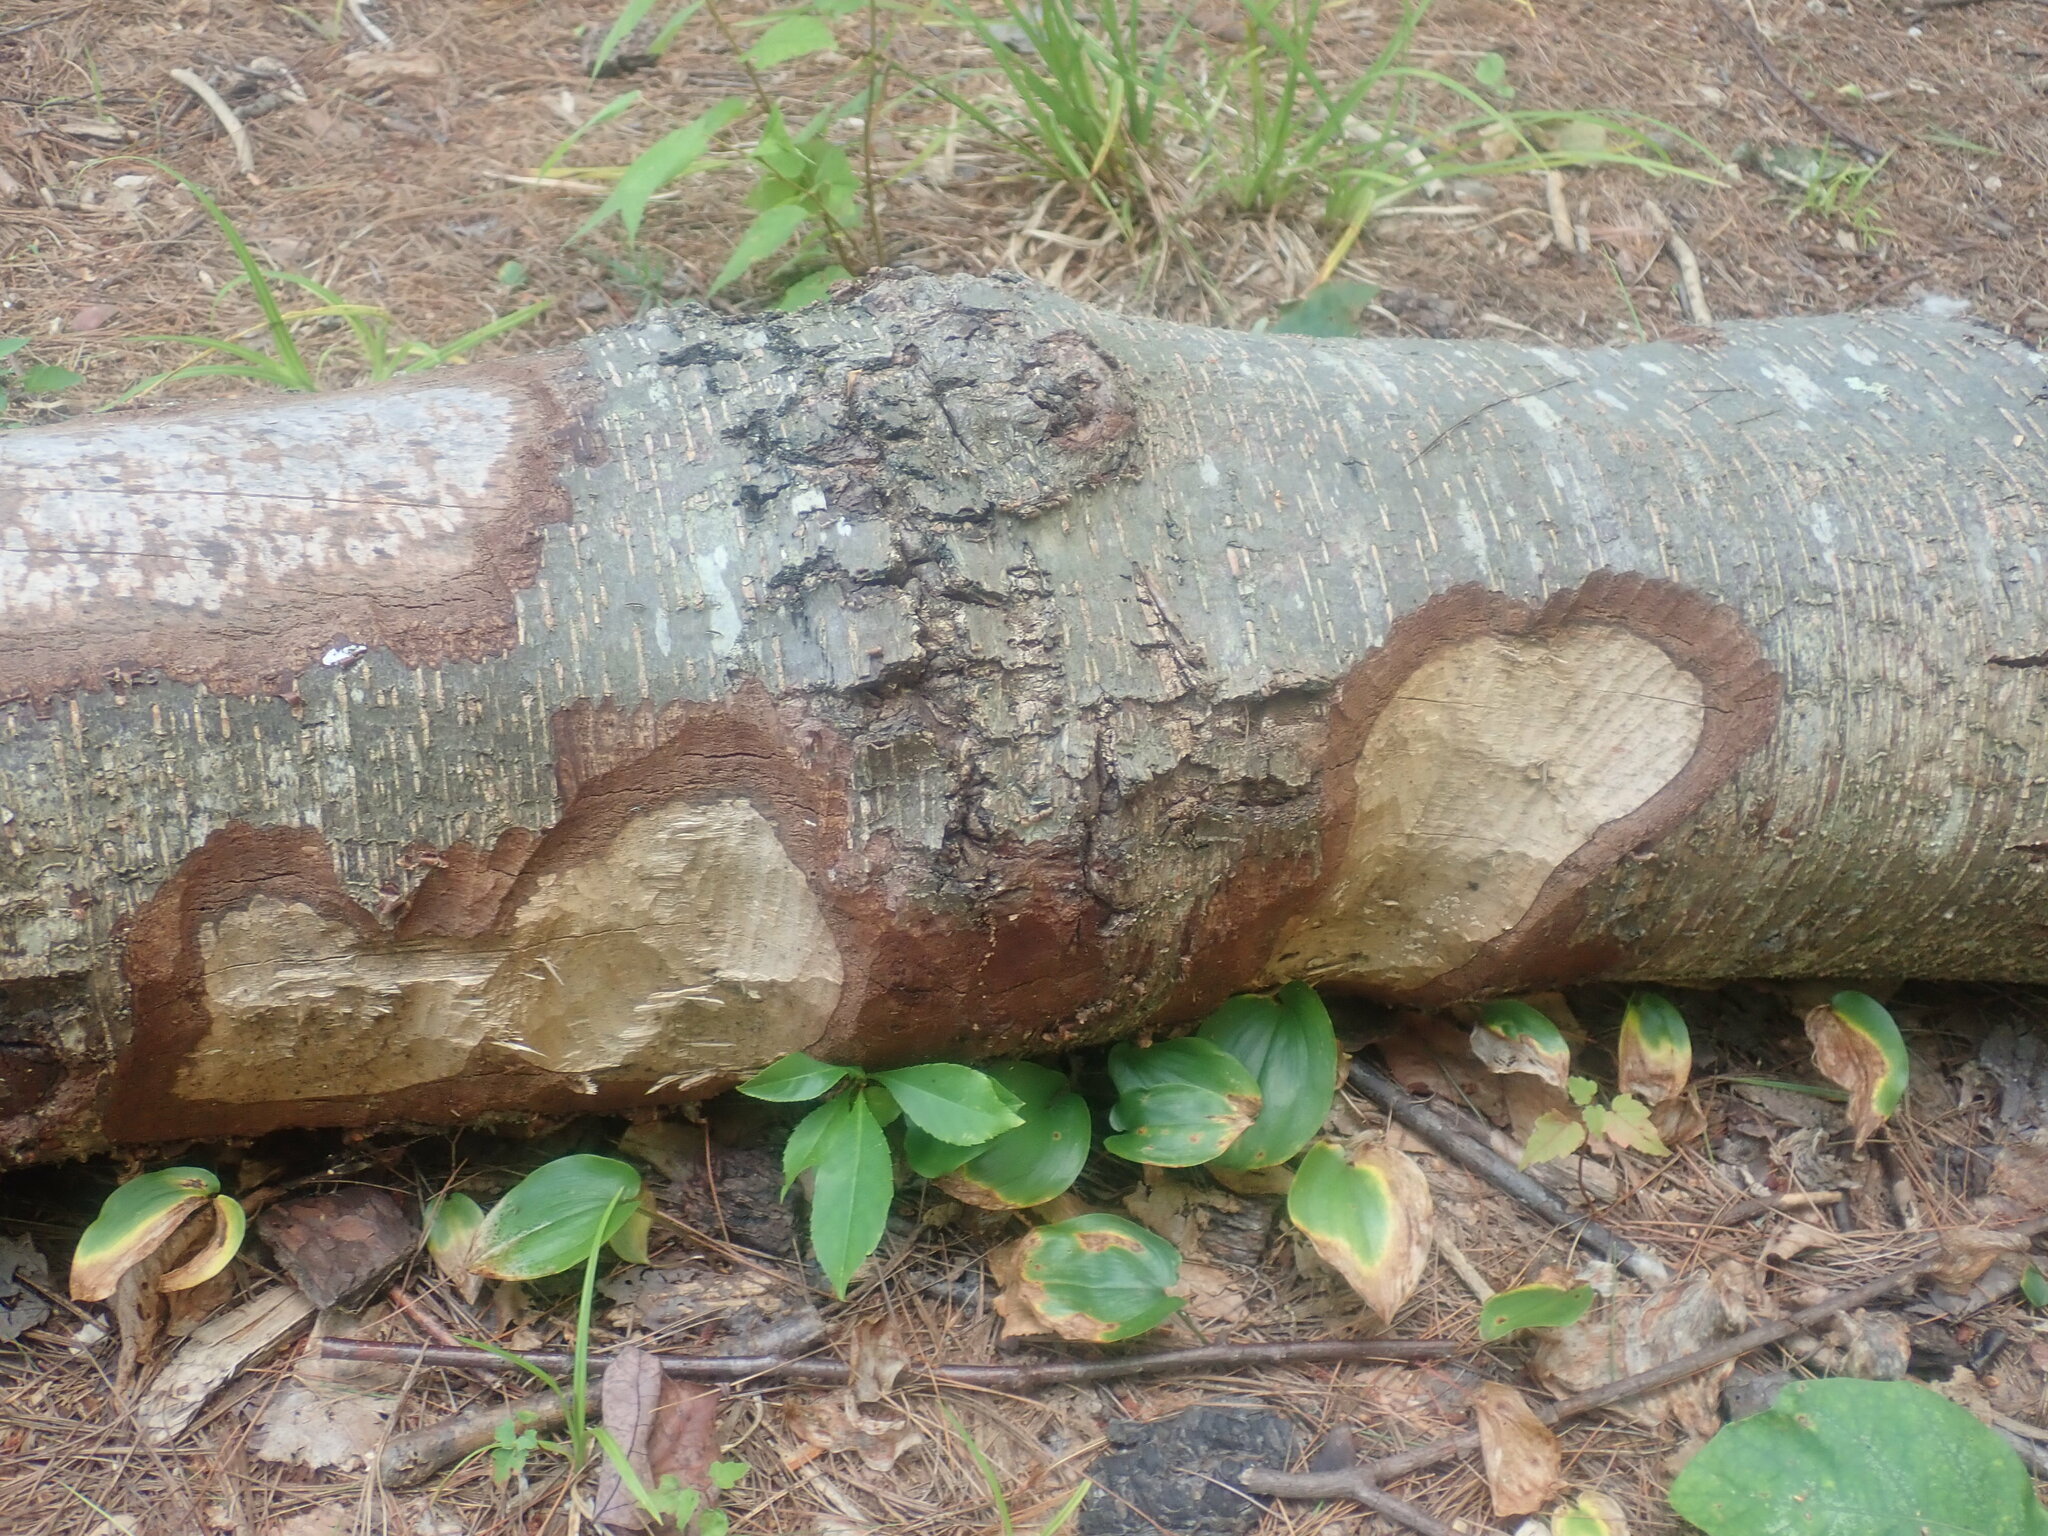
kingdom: Animalia
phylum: Chordata
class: Mammalia
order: Rodentia
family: Castoridae
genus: Castor
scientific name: Castor canadensis
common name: American beaver
